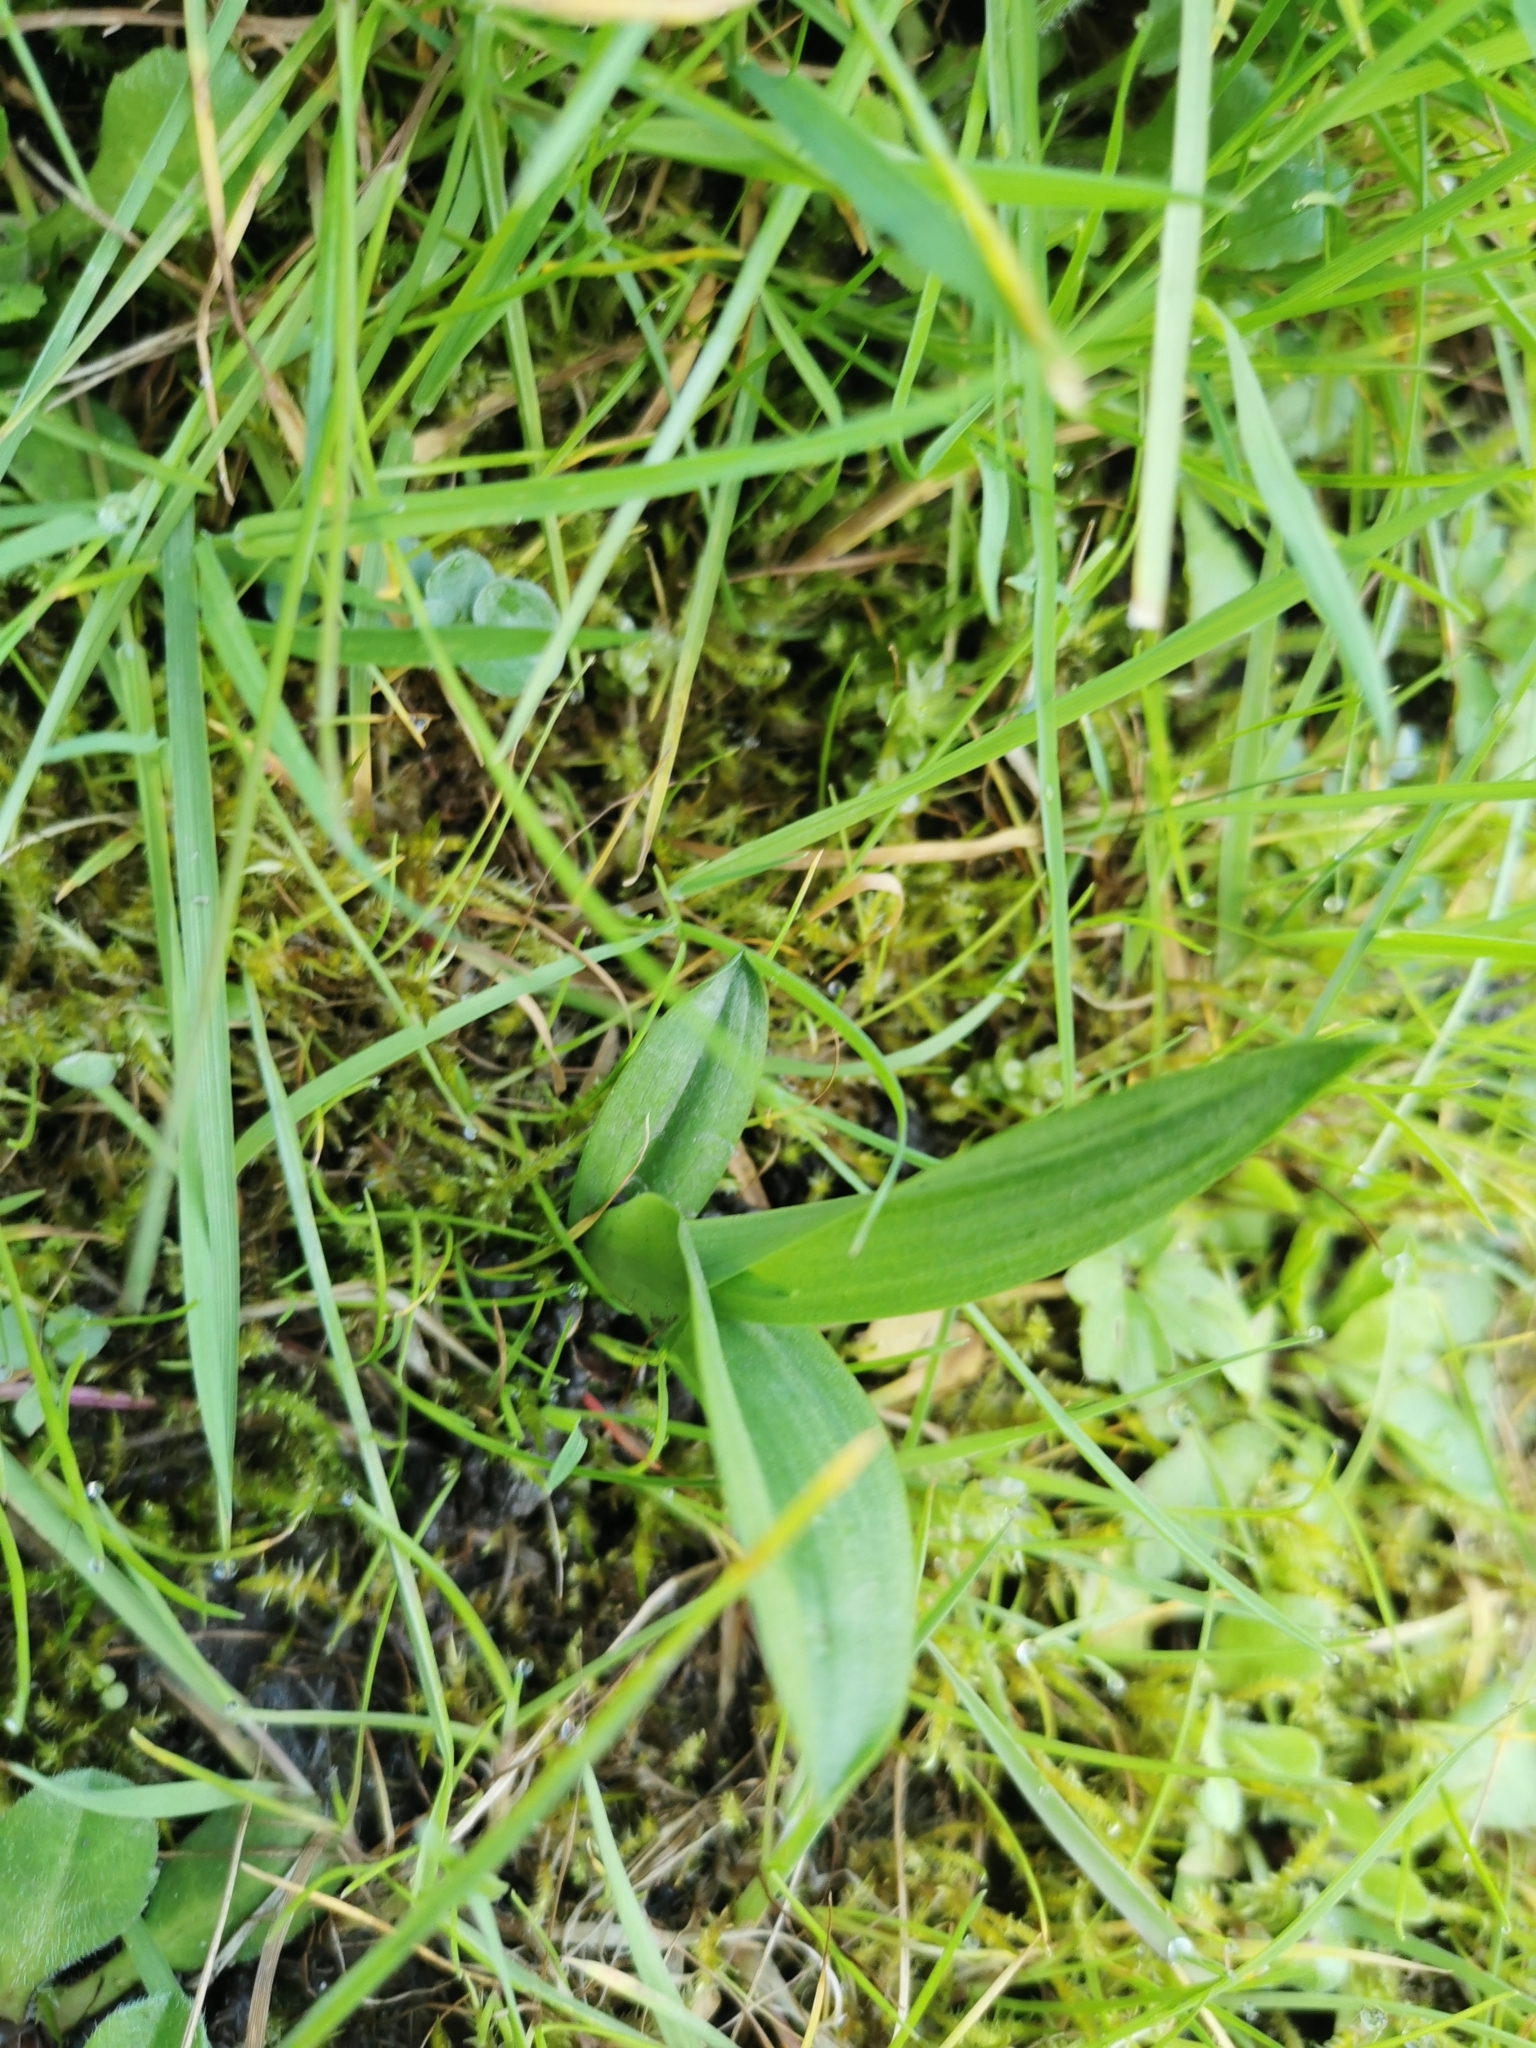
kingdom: Plantae
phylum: Tracheophyta
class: Liliopsida
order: Asparagales
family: Orchidaceae
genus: Dactylorhiza
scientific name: Dactylorhiza majalis
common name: Marsh orchid
